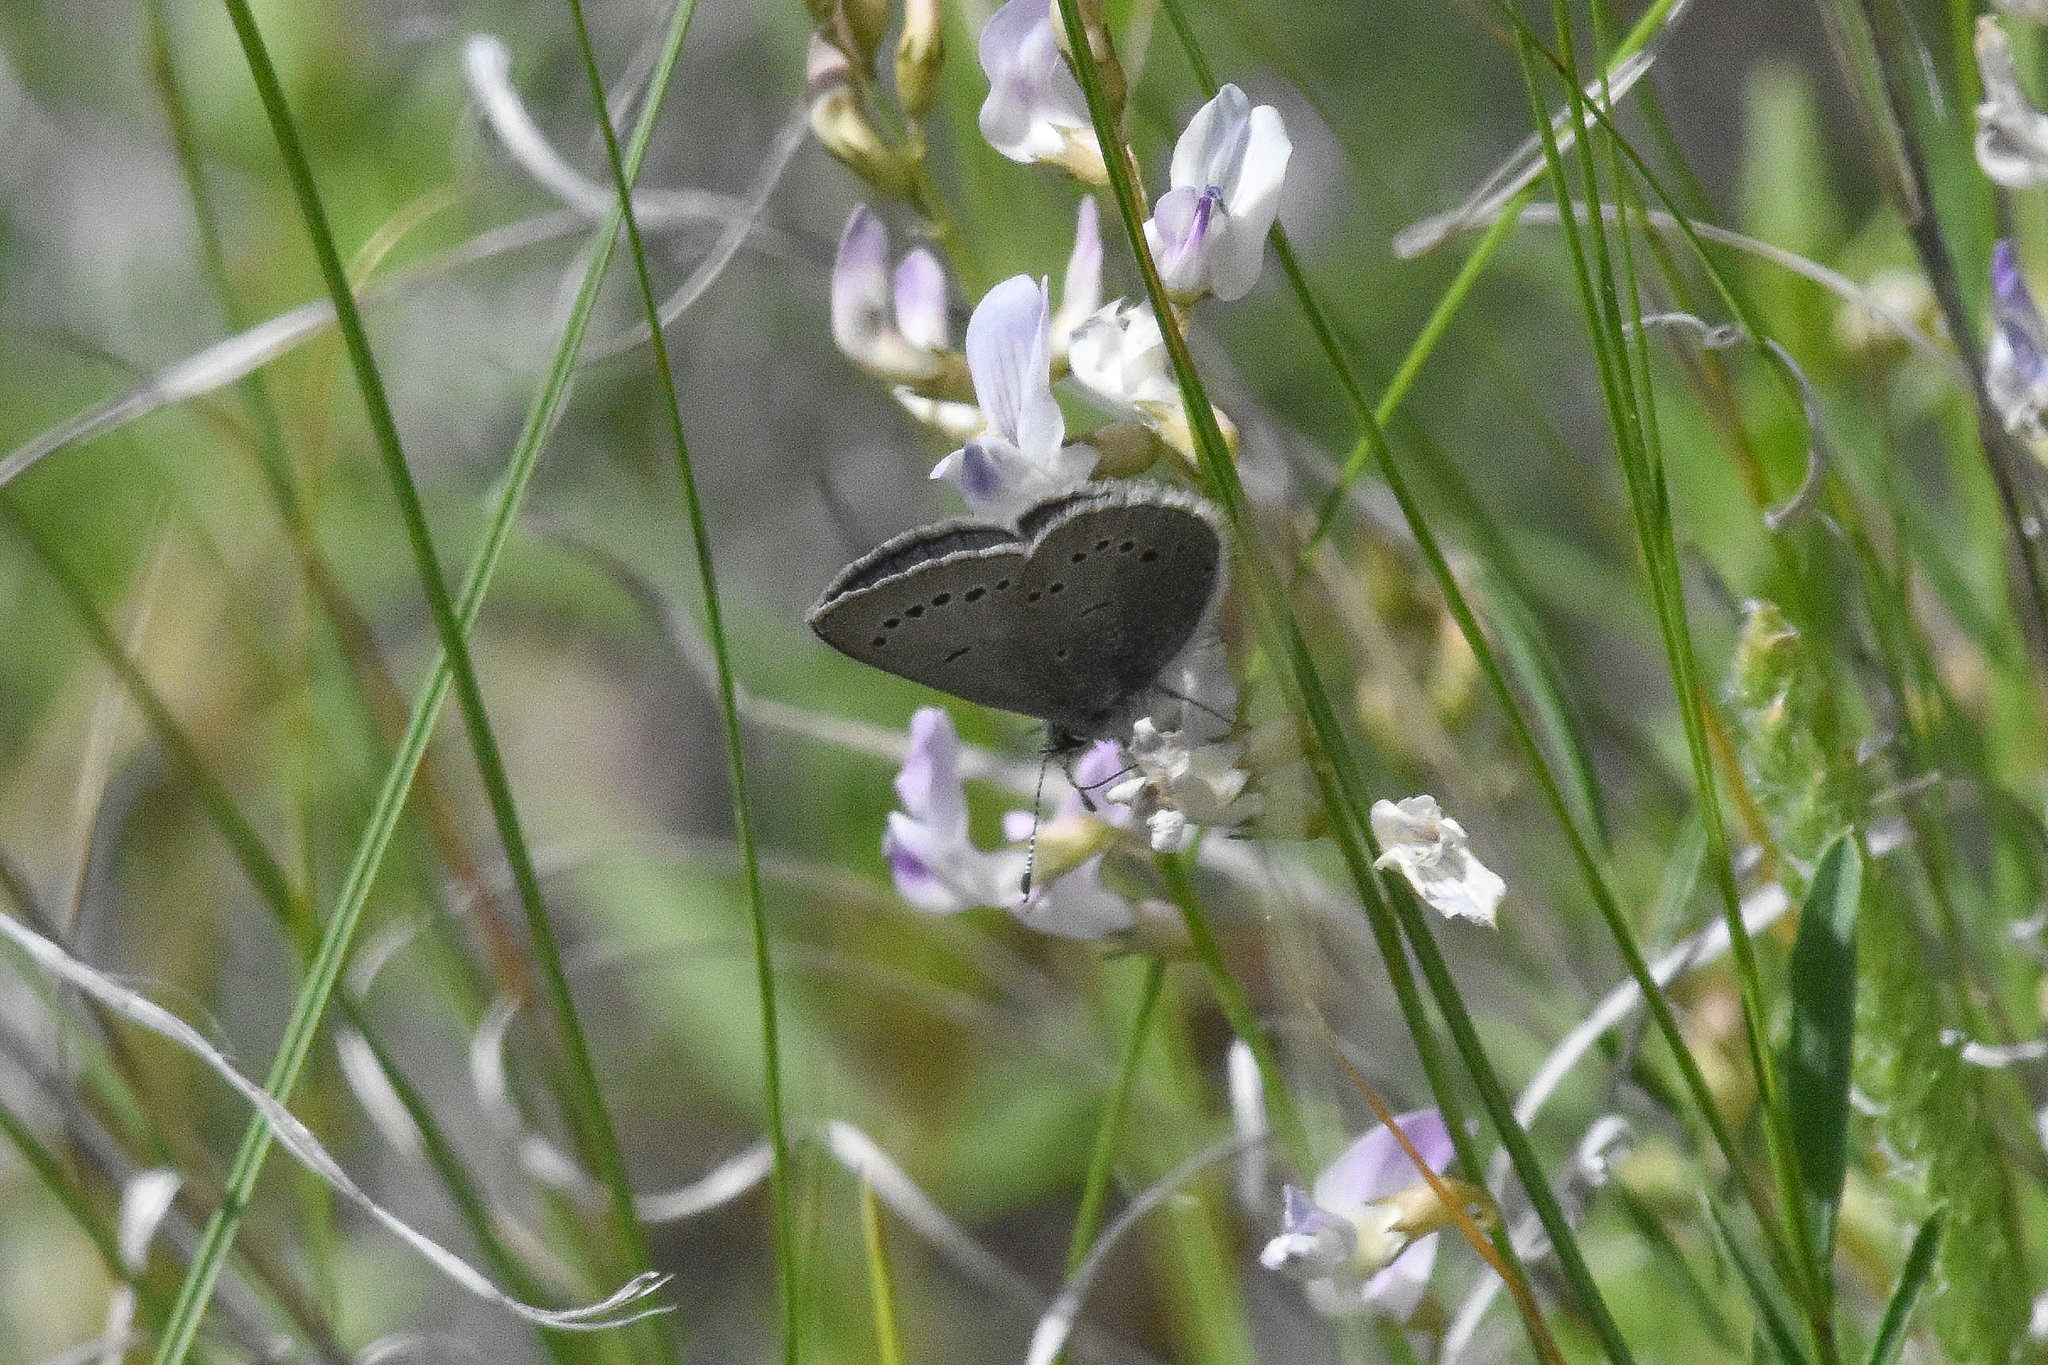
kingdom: Animalia
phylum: Arthropoda
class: Insecta
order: Lepidoptera
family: Lycaenidae
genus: Glaucopsyche
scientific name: Glaucopsyche lygdamus
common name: Silvery blue
